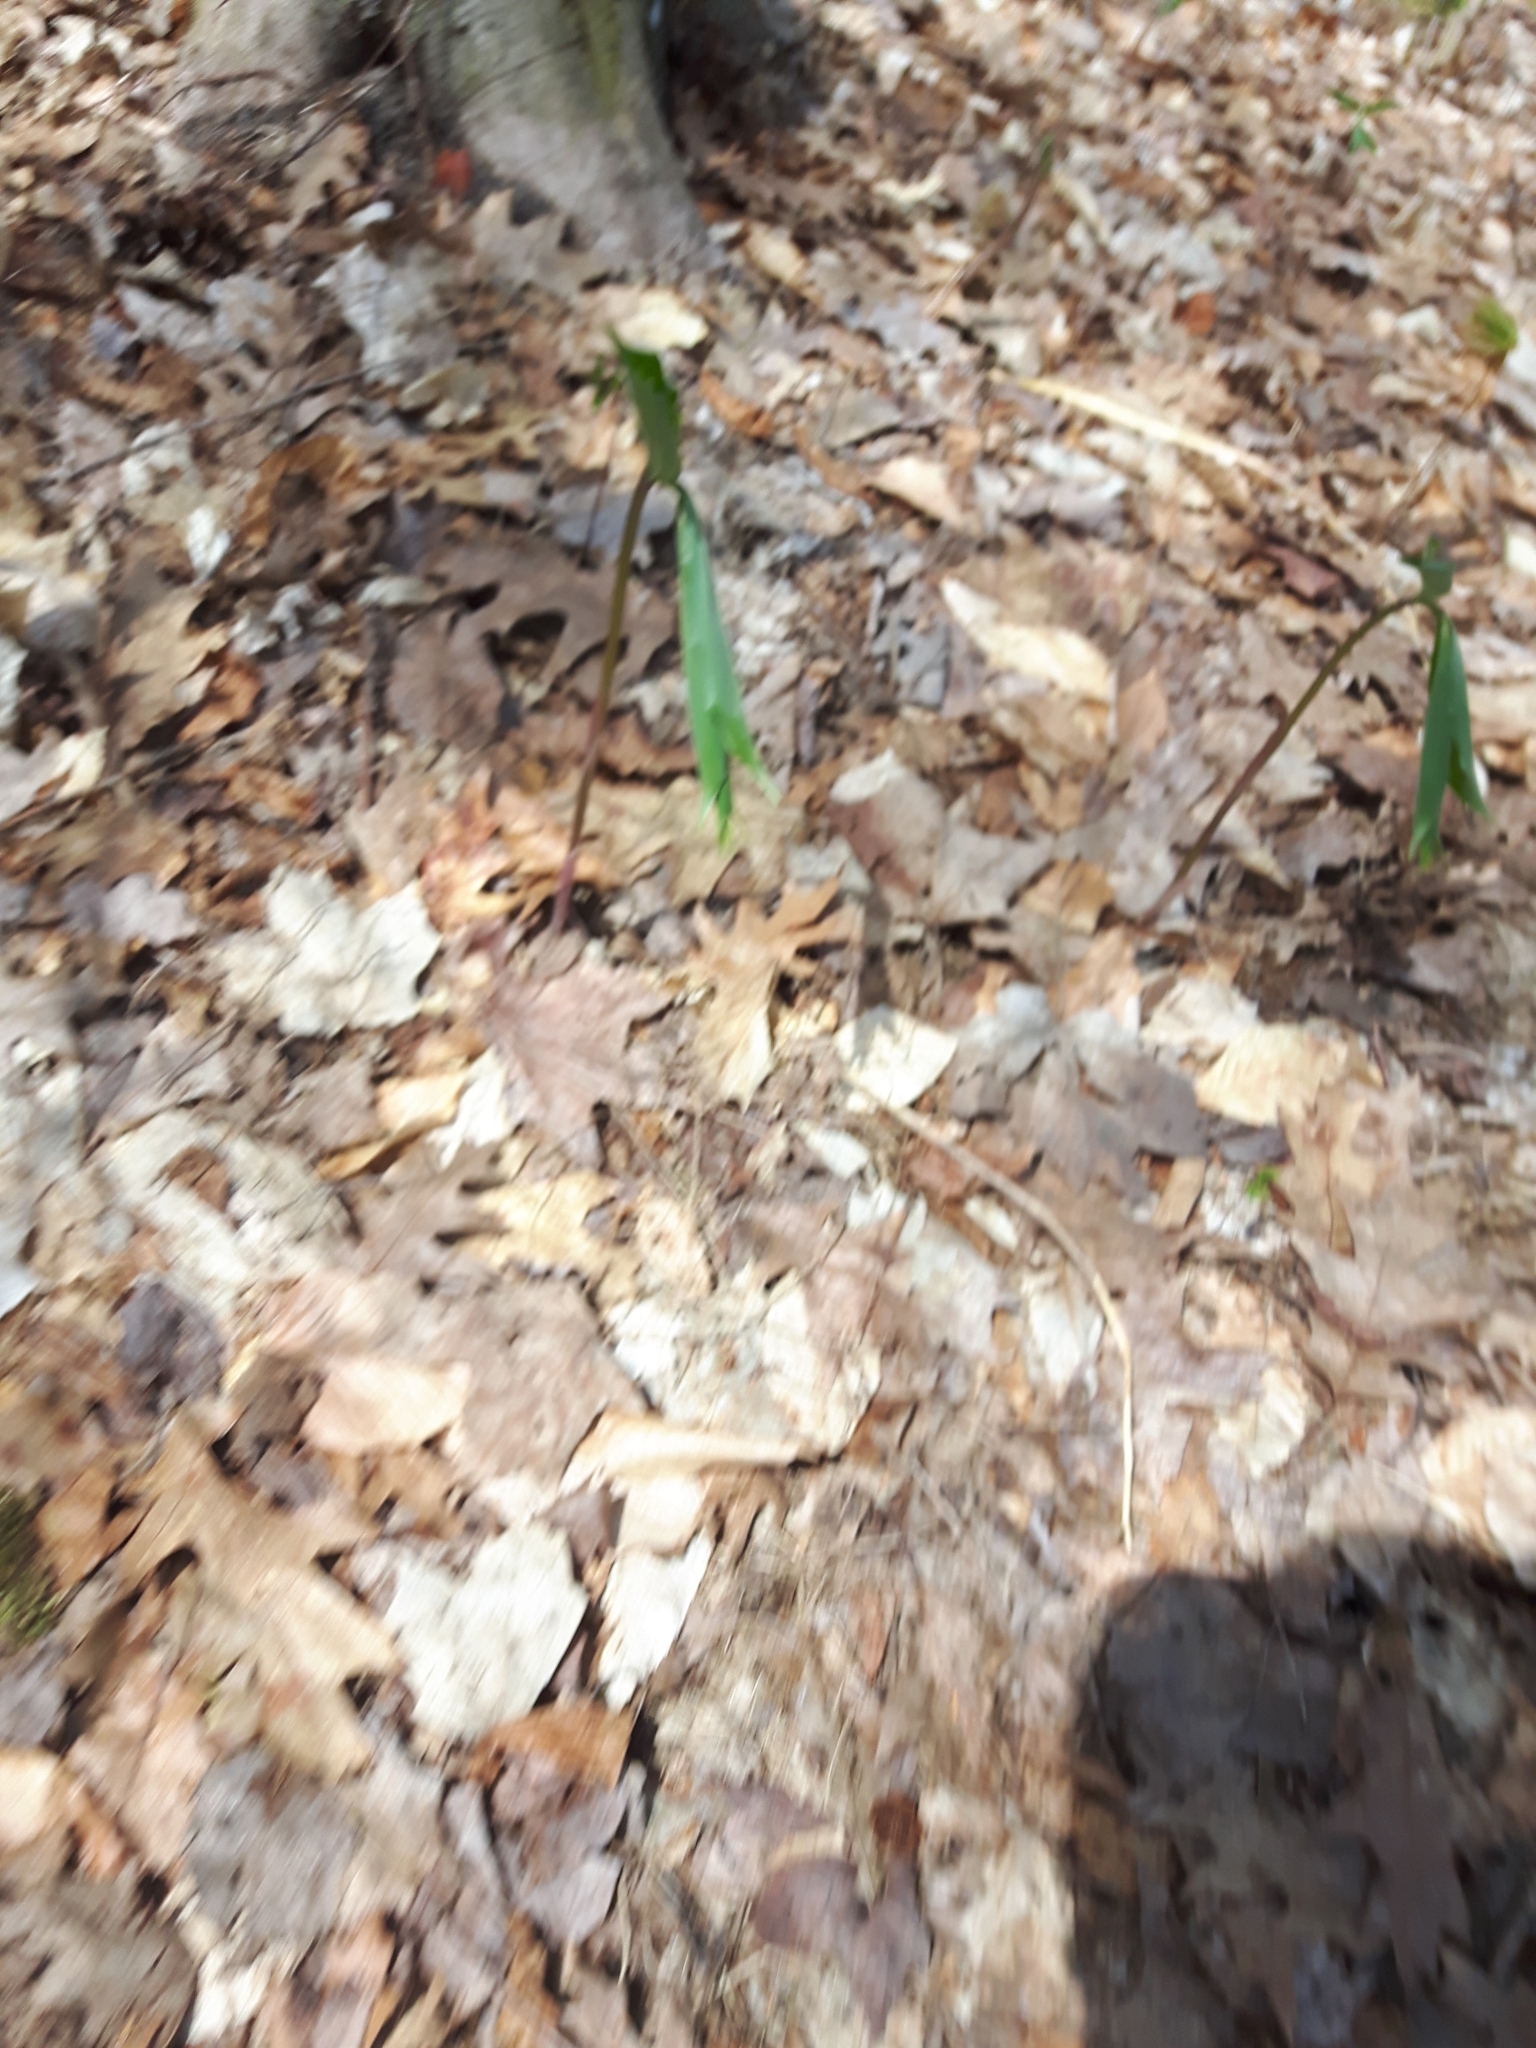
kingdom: Plantae
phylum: Tracheophyta
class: Liliopsida
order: Asparagales
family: Asparagaceae
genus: Maianthemum
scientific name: Maianthemum racemosum
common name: False spikenard
